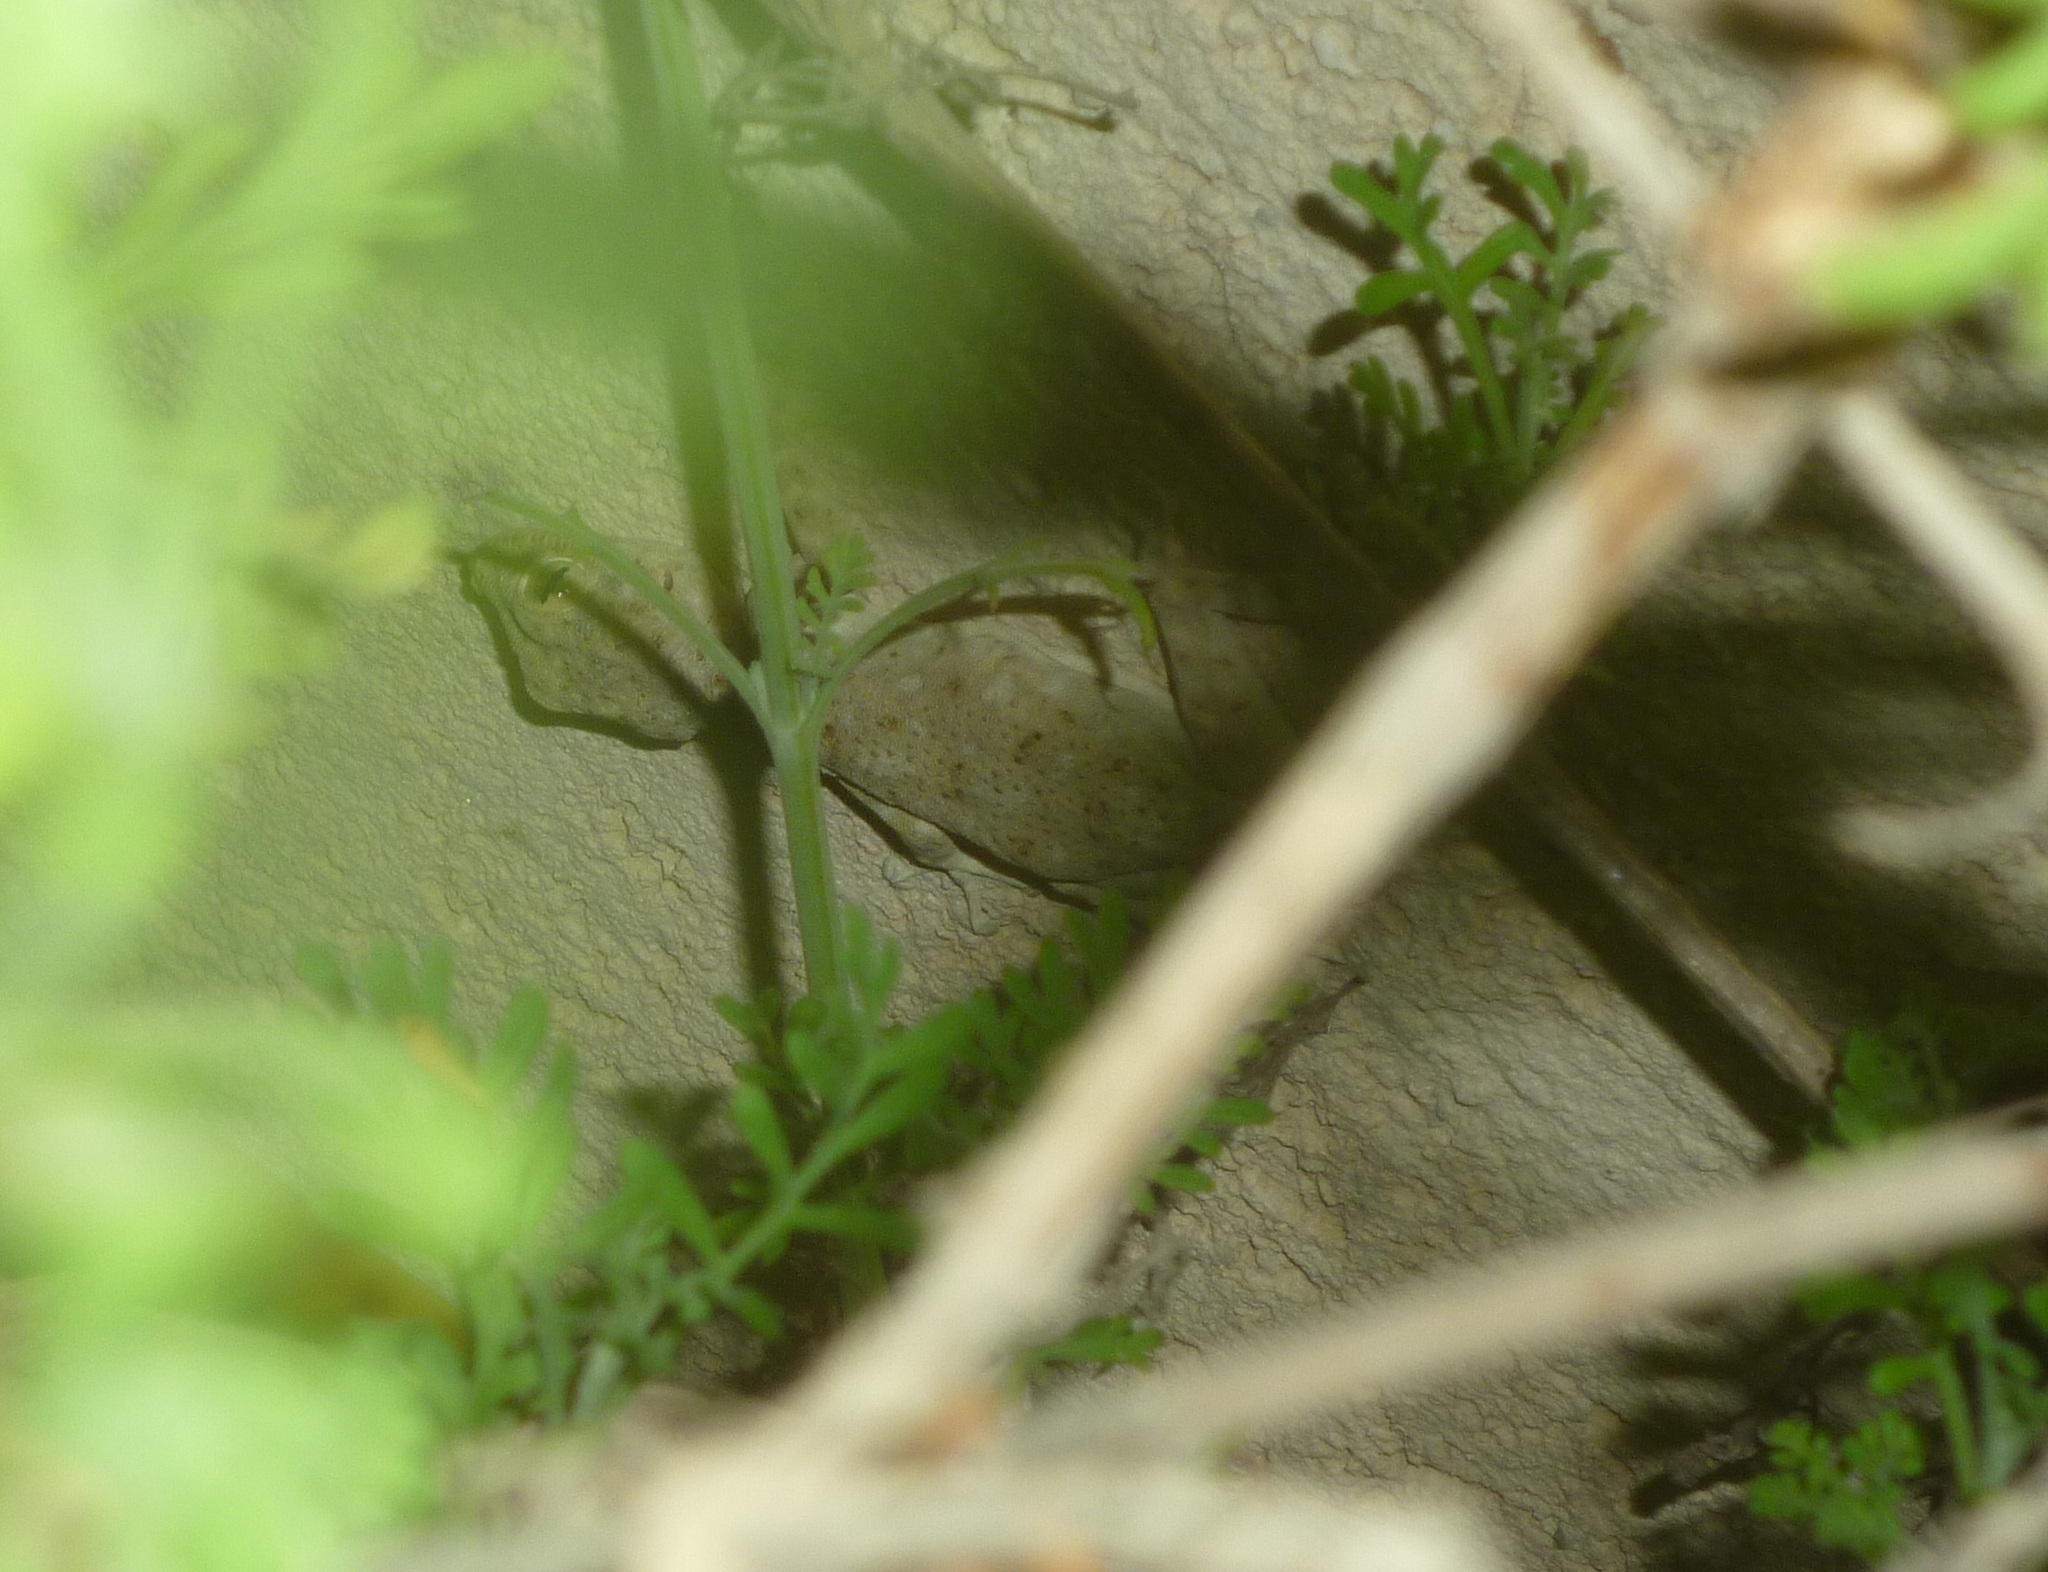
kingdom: Animalia
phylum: Chordata
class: Squamata
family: Phyllodactylidae
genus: Ptyodactylus
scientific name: Ptyodactylus guttatus
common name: Sinai fan-fingered gecko
